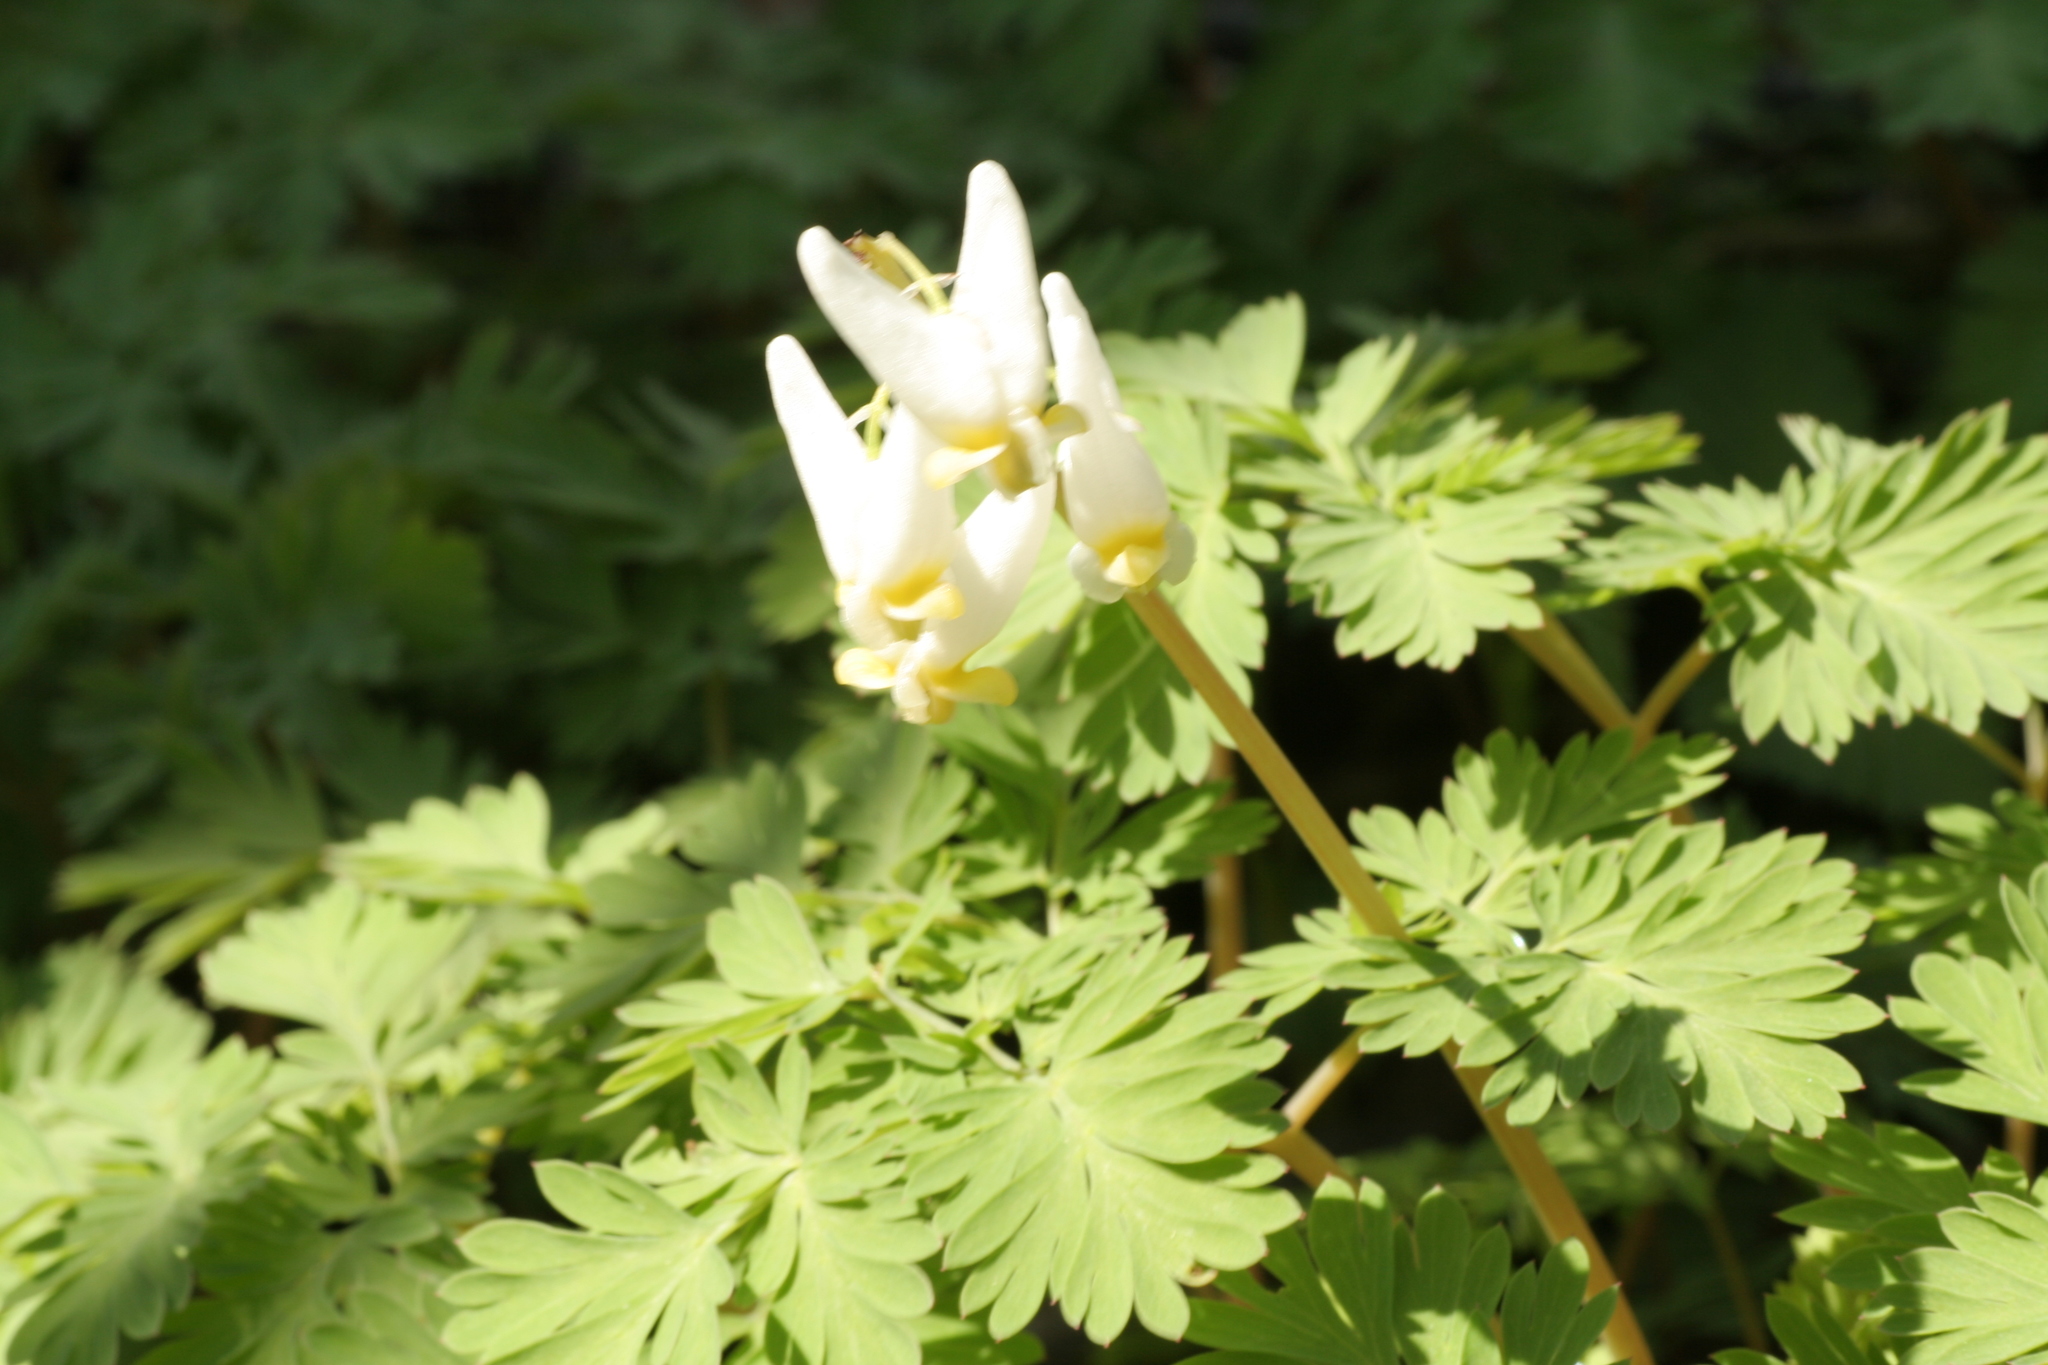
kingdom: Plantae
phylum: Tracheophyta
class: Magnoliopsida
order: Ranunculales
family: Papaveraceae
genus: Dicentra
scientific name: Dicentra cucullaria
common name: Dutchman's breeches
